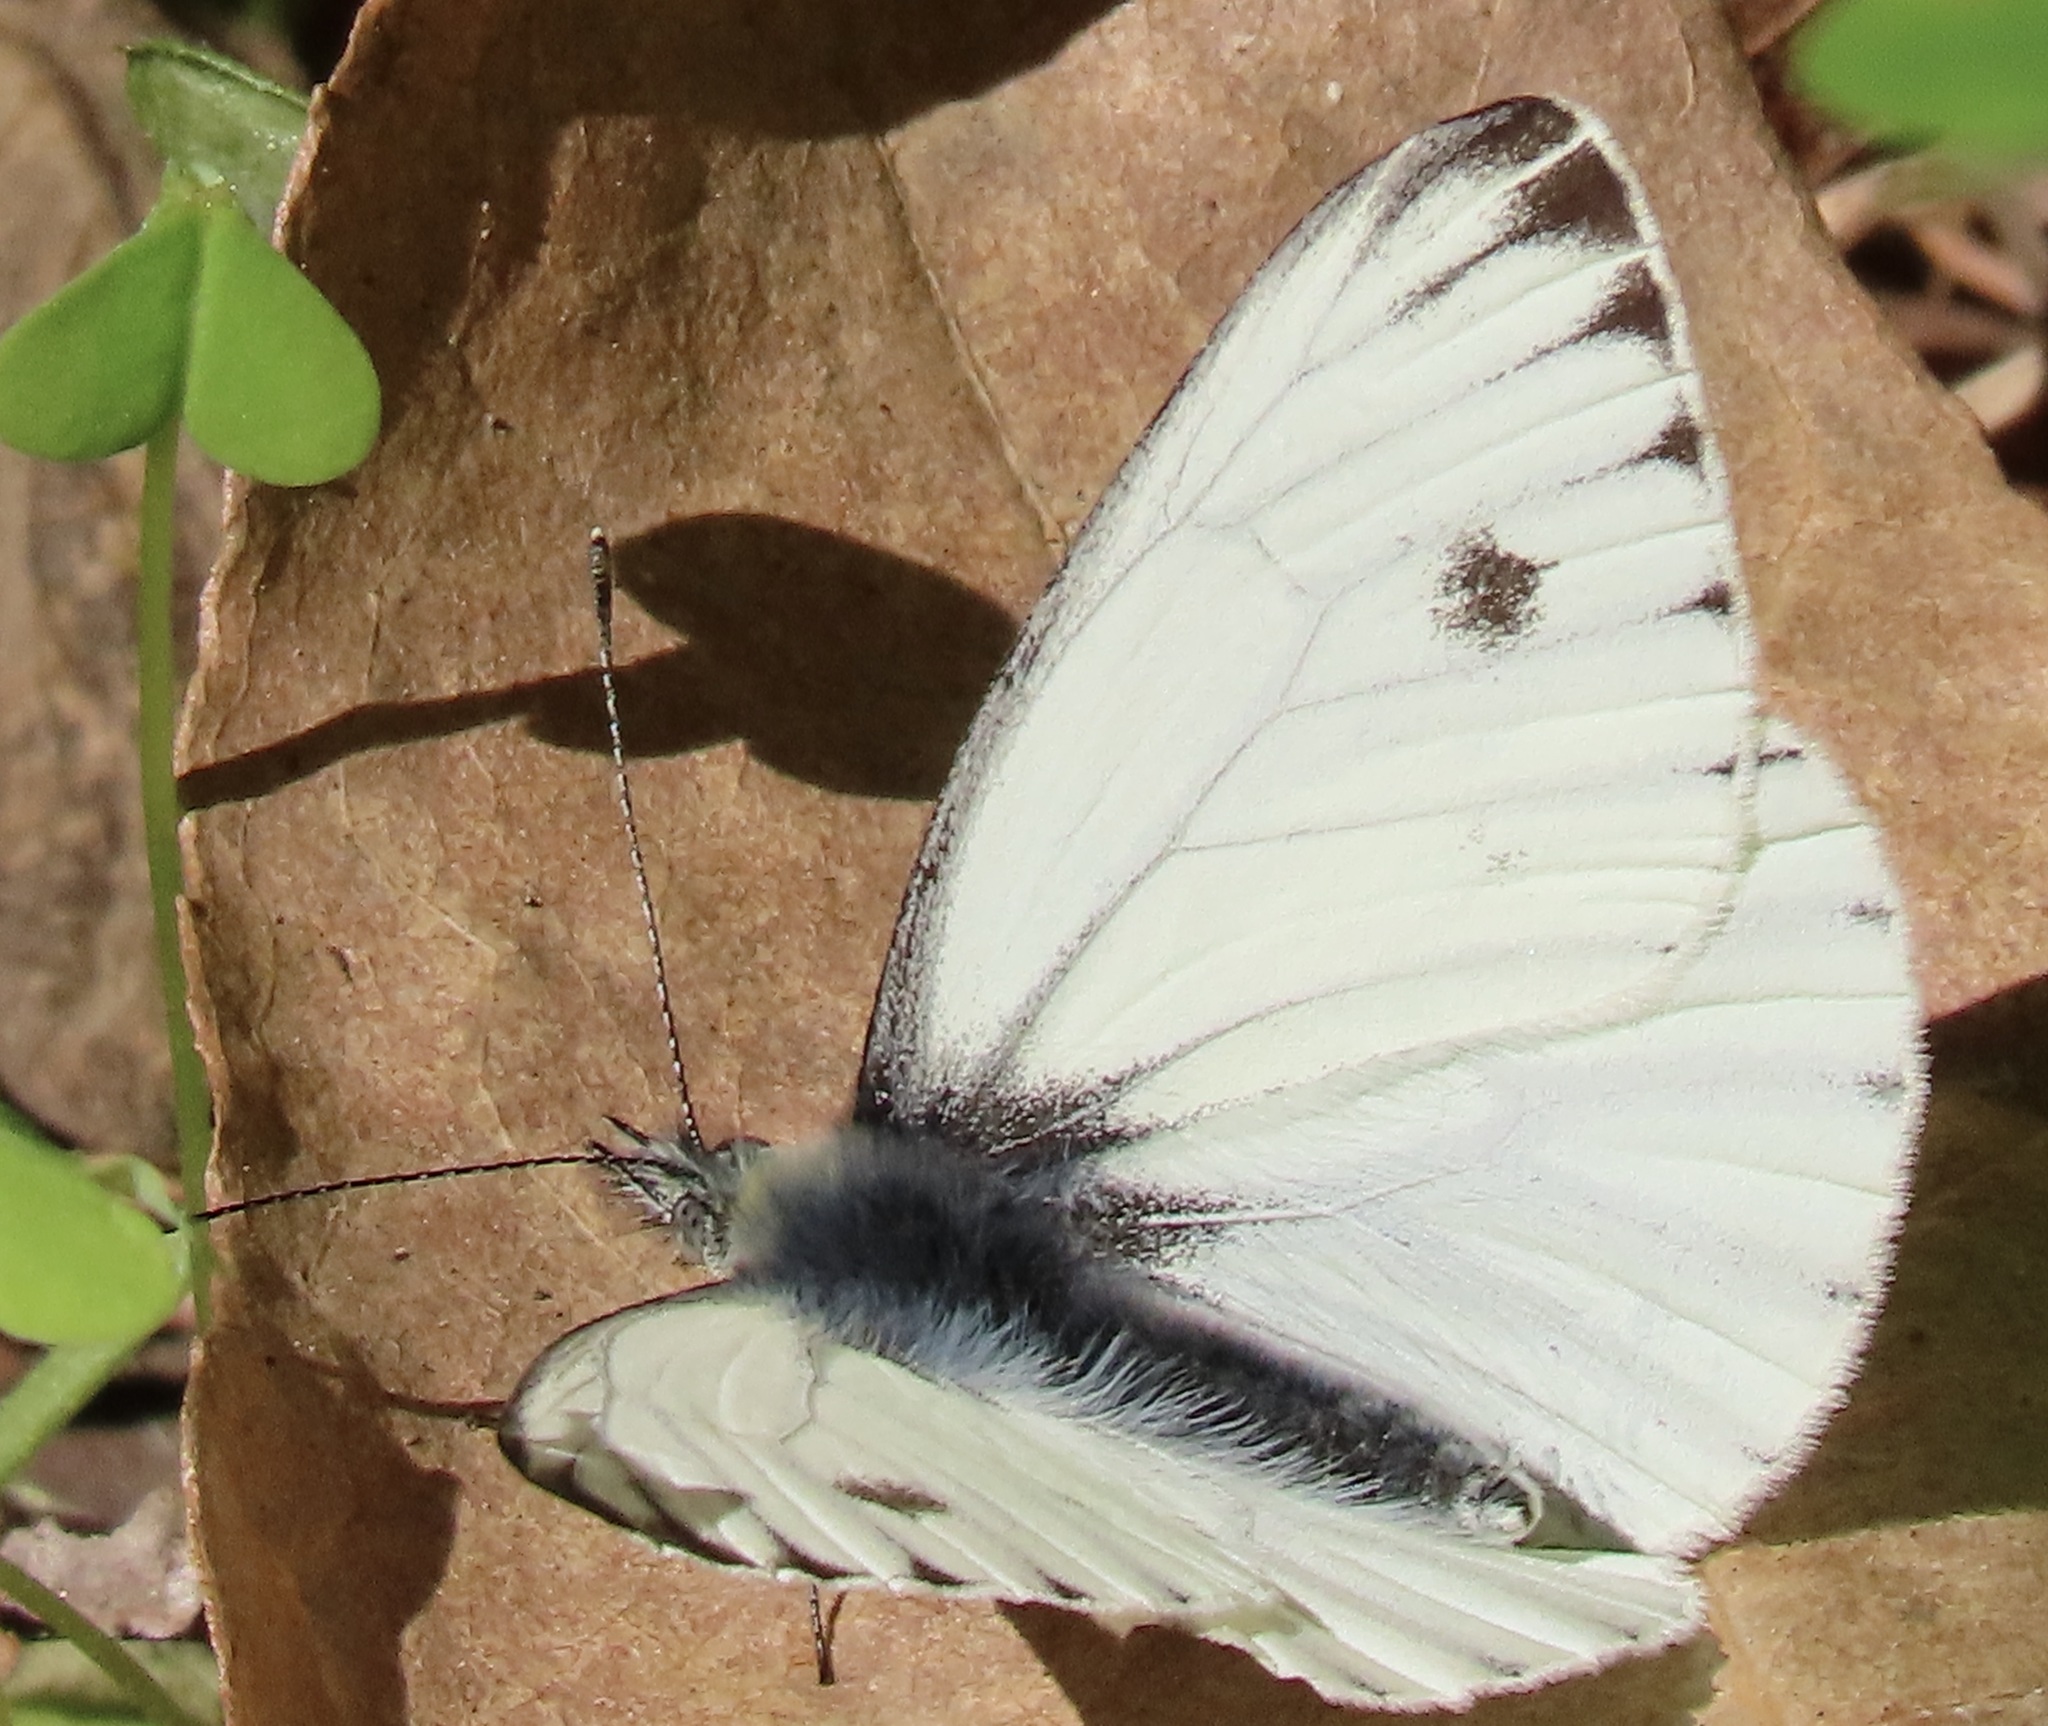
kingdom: Animalia
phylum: Arthropoda
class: Insecta
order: Lepidoptera
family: Pieridae
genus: Pieris
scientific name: Pieris marginalis
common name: Margined white
